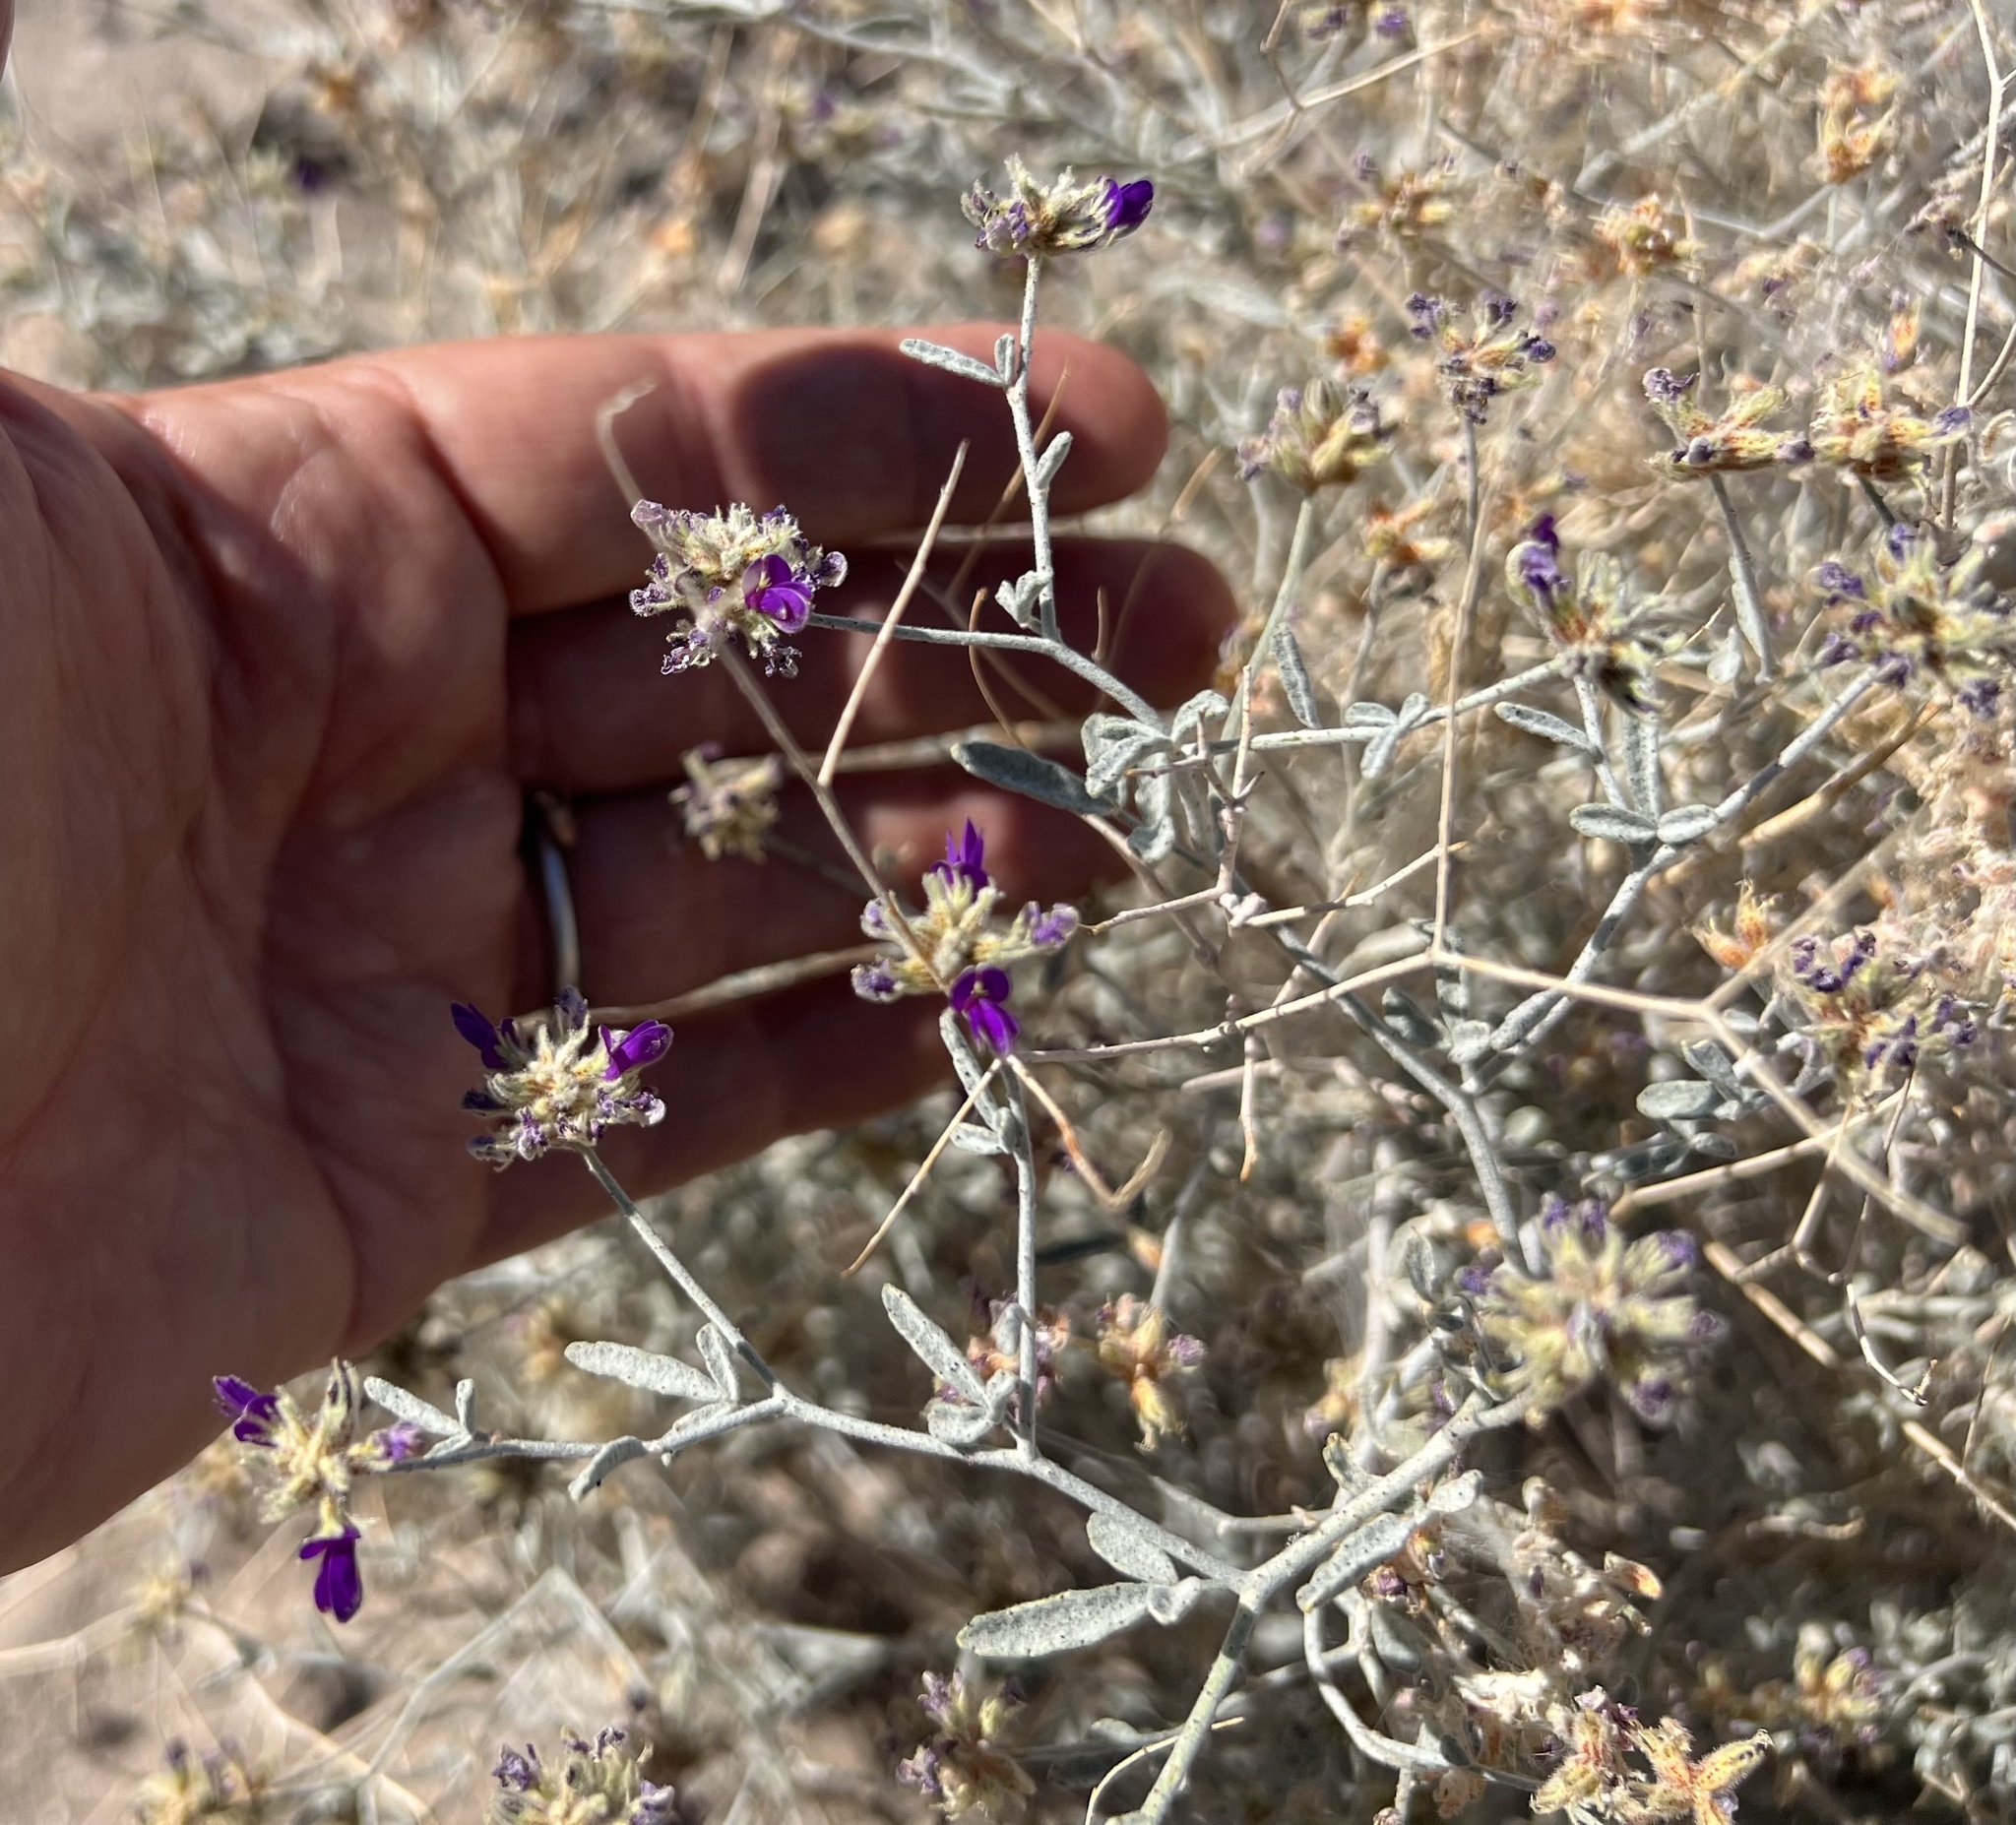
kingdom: Plantae
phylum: Tracheophyta
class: Magnoliopsida
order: Fabales
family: Fabaceae
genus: Psorothamnus
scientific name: Psorothamnus emoryi
